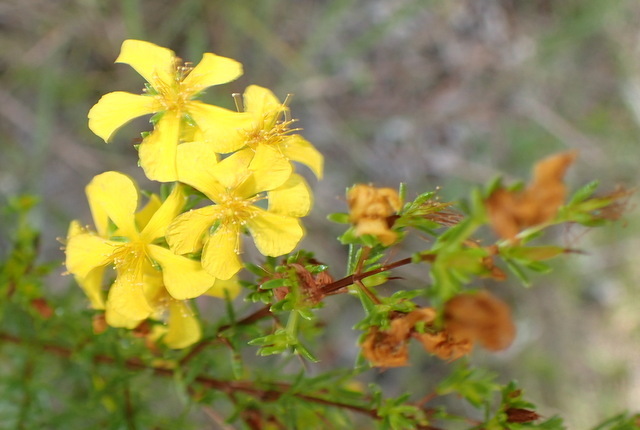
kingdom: Plantae
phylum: Tracheophyta
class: Magnoliopsida
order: Malpighiales
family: Hypericaceae
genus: Hypericum
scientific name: Hypericum brachyphyllum
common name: Coastal plain st. john's-wort
